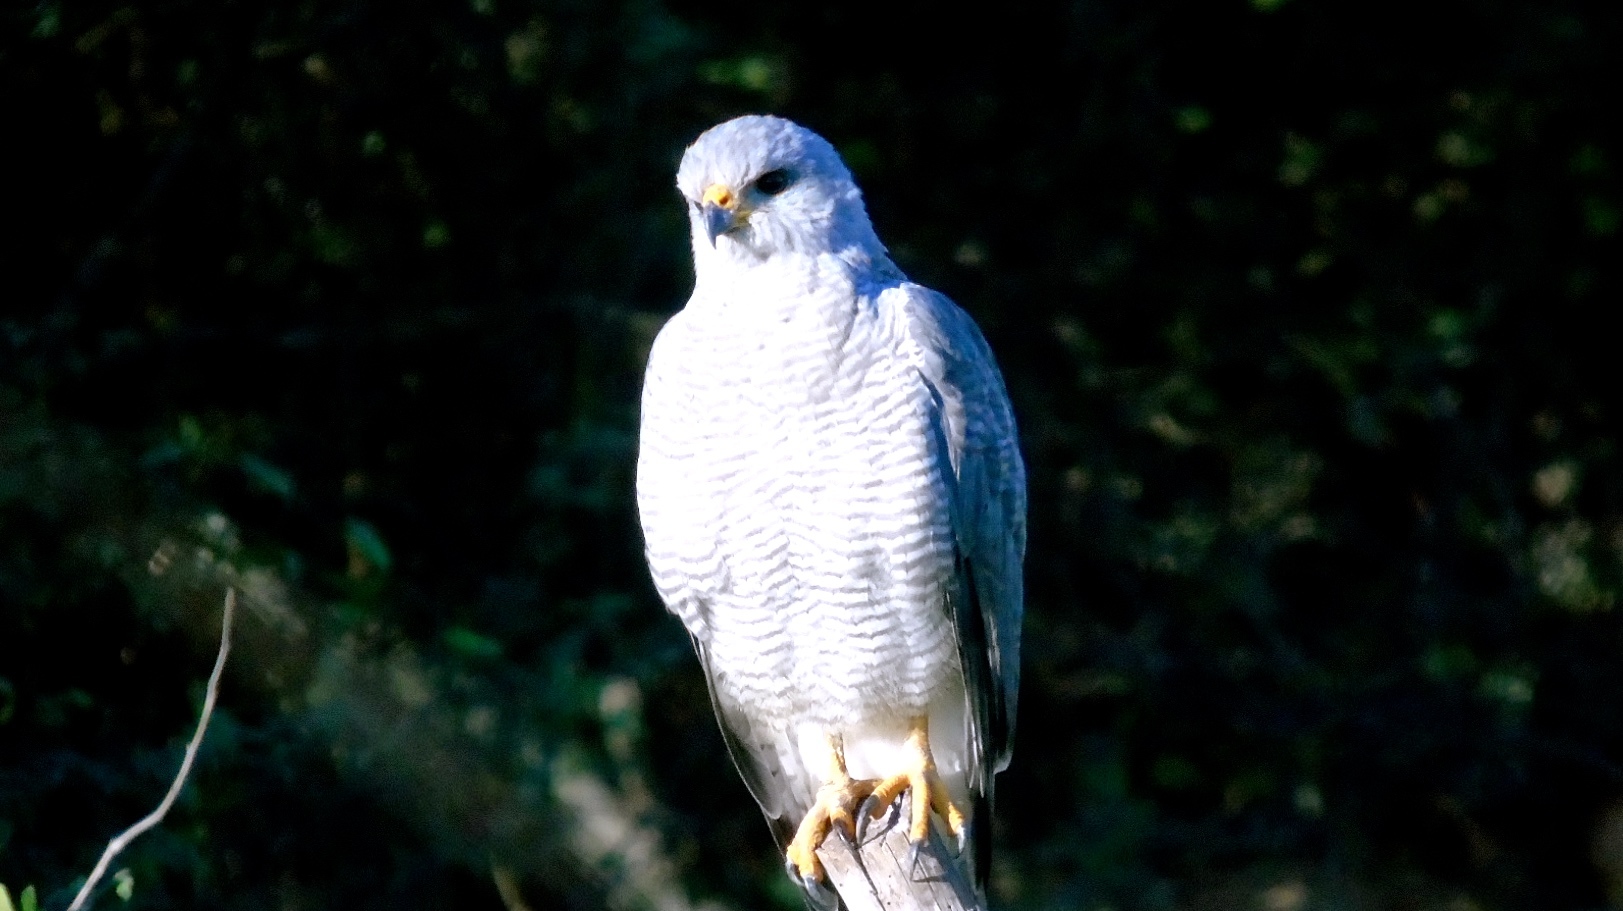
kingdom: Animalia
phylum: Chordata
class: Aves
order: Accipitriformes
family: Accipitridae
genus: Buteo
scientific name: Buteo nitidus
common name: Grey-lined hawk
